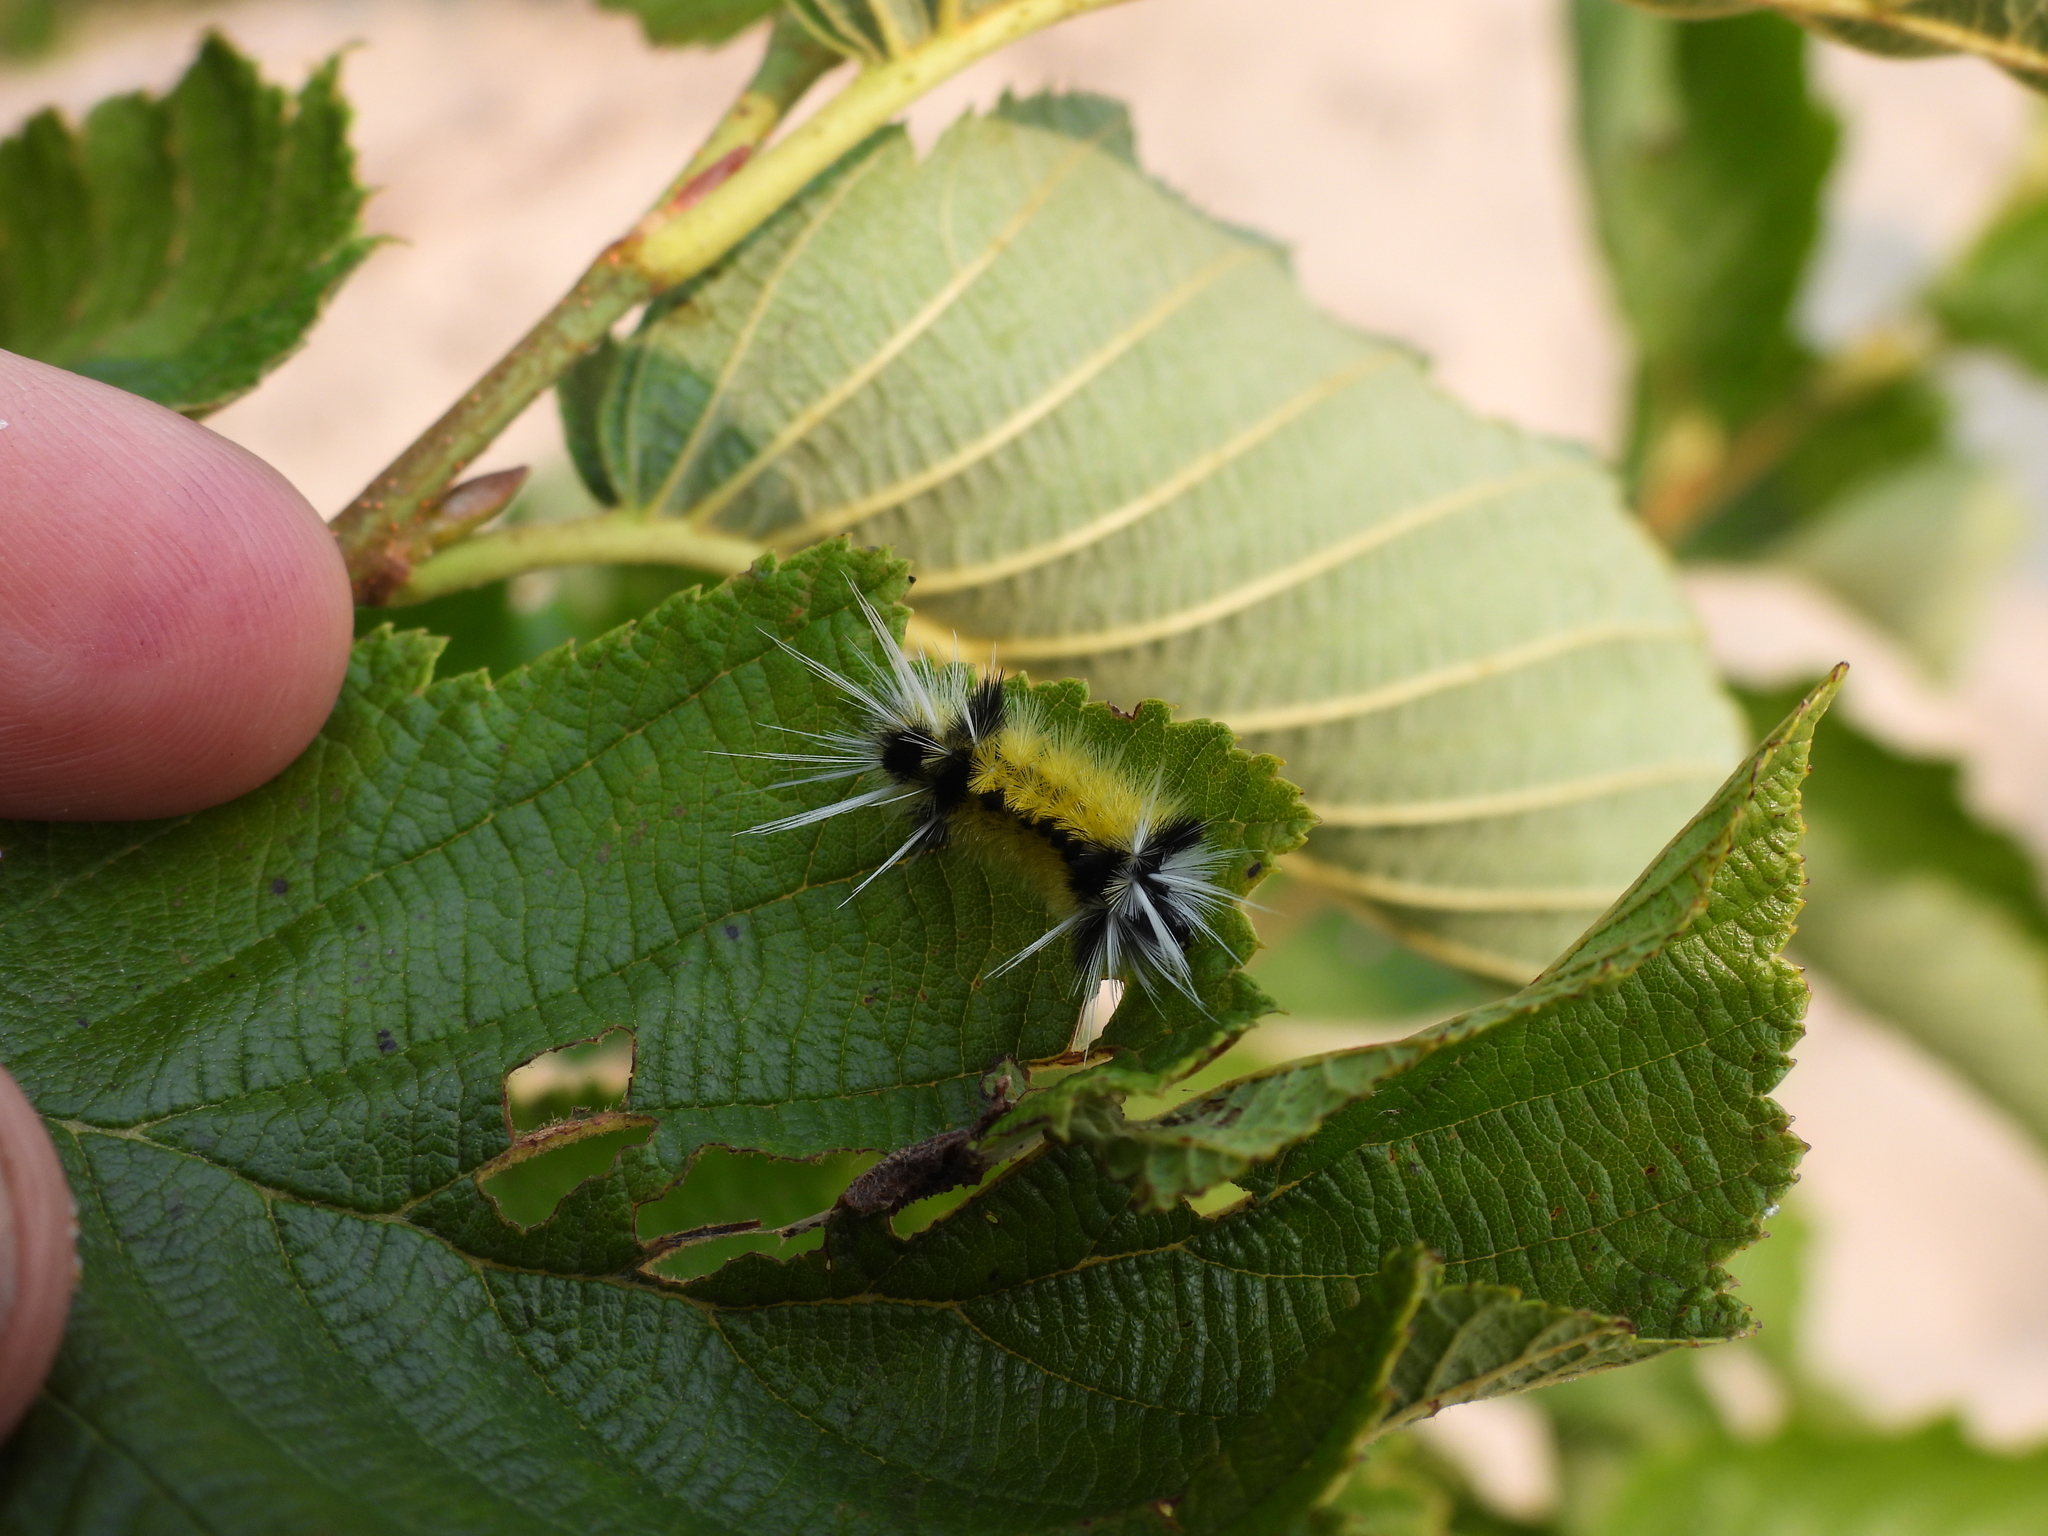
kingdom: Animalia
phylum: Arthropoda
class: Insecta
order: Lepidoptera
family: Erebidae
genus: Lophocampa
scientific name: Lophocampa maculata
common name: Spotted tussock moth
